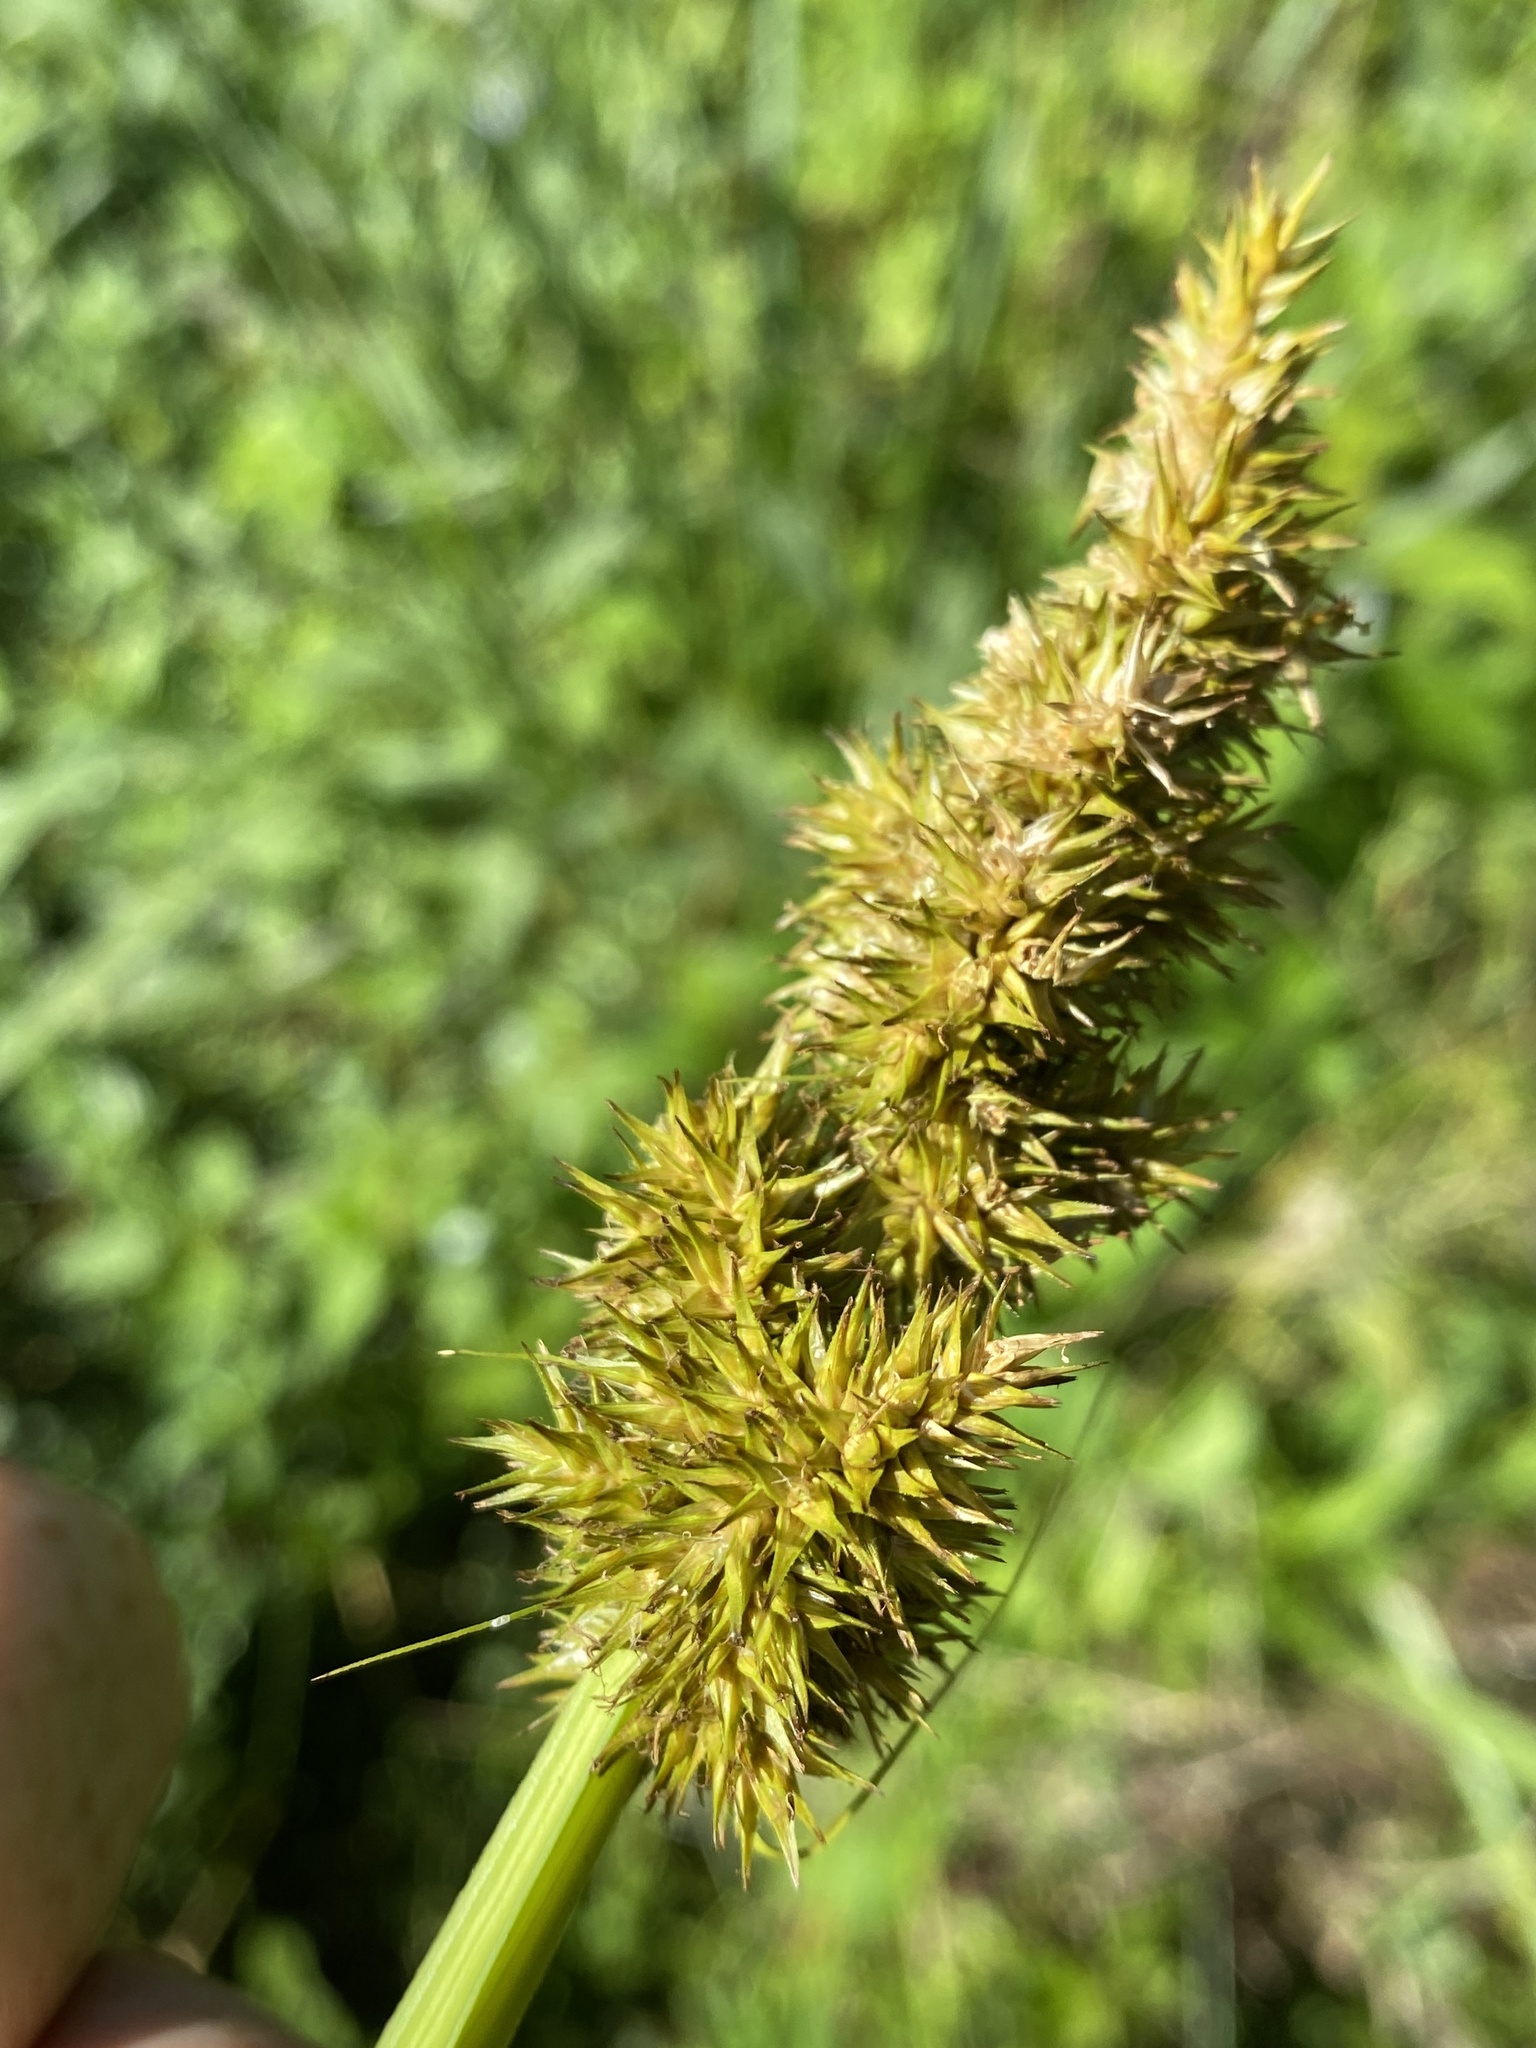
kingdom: Plantae
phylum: Tracheophyta
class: Liliopsida
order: Poales
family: Cyperaceae
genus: Carex
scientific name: Carex stipata
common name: Awl-fruited sedge
